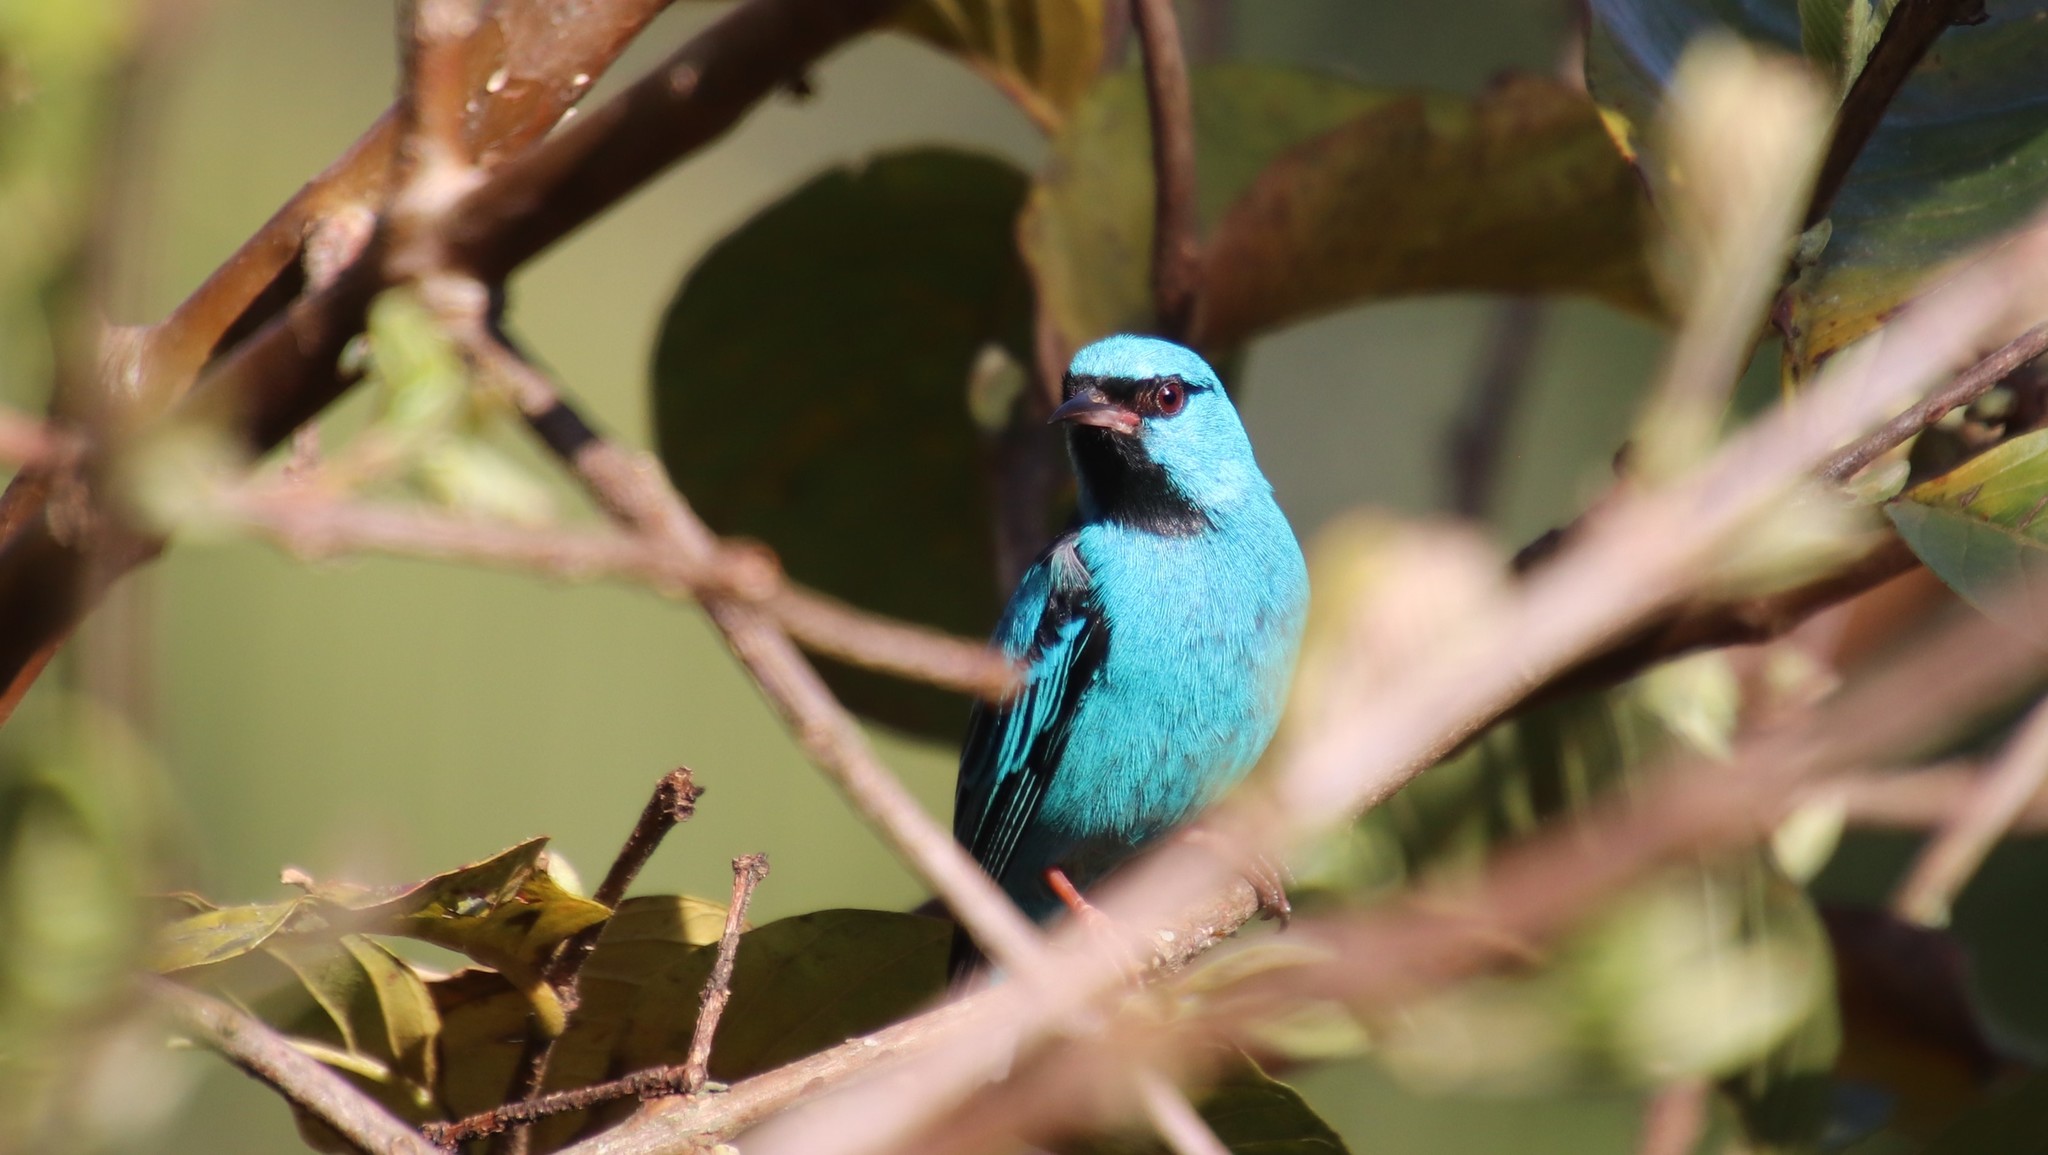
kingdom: Animalia
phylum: Chordata
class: Aves
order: Passeriformes
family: Thraupidae
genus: Dacnis
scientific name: Dacnis cayana
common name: Blue dacnis
